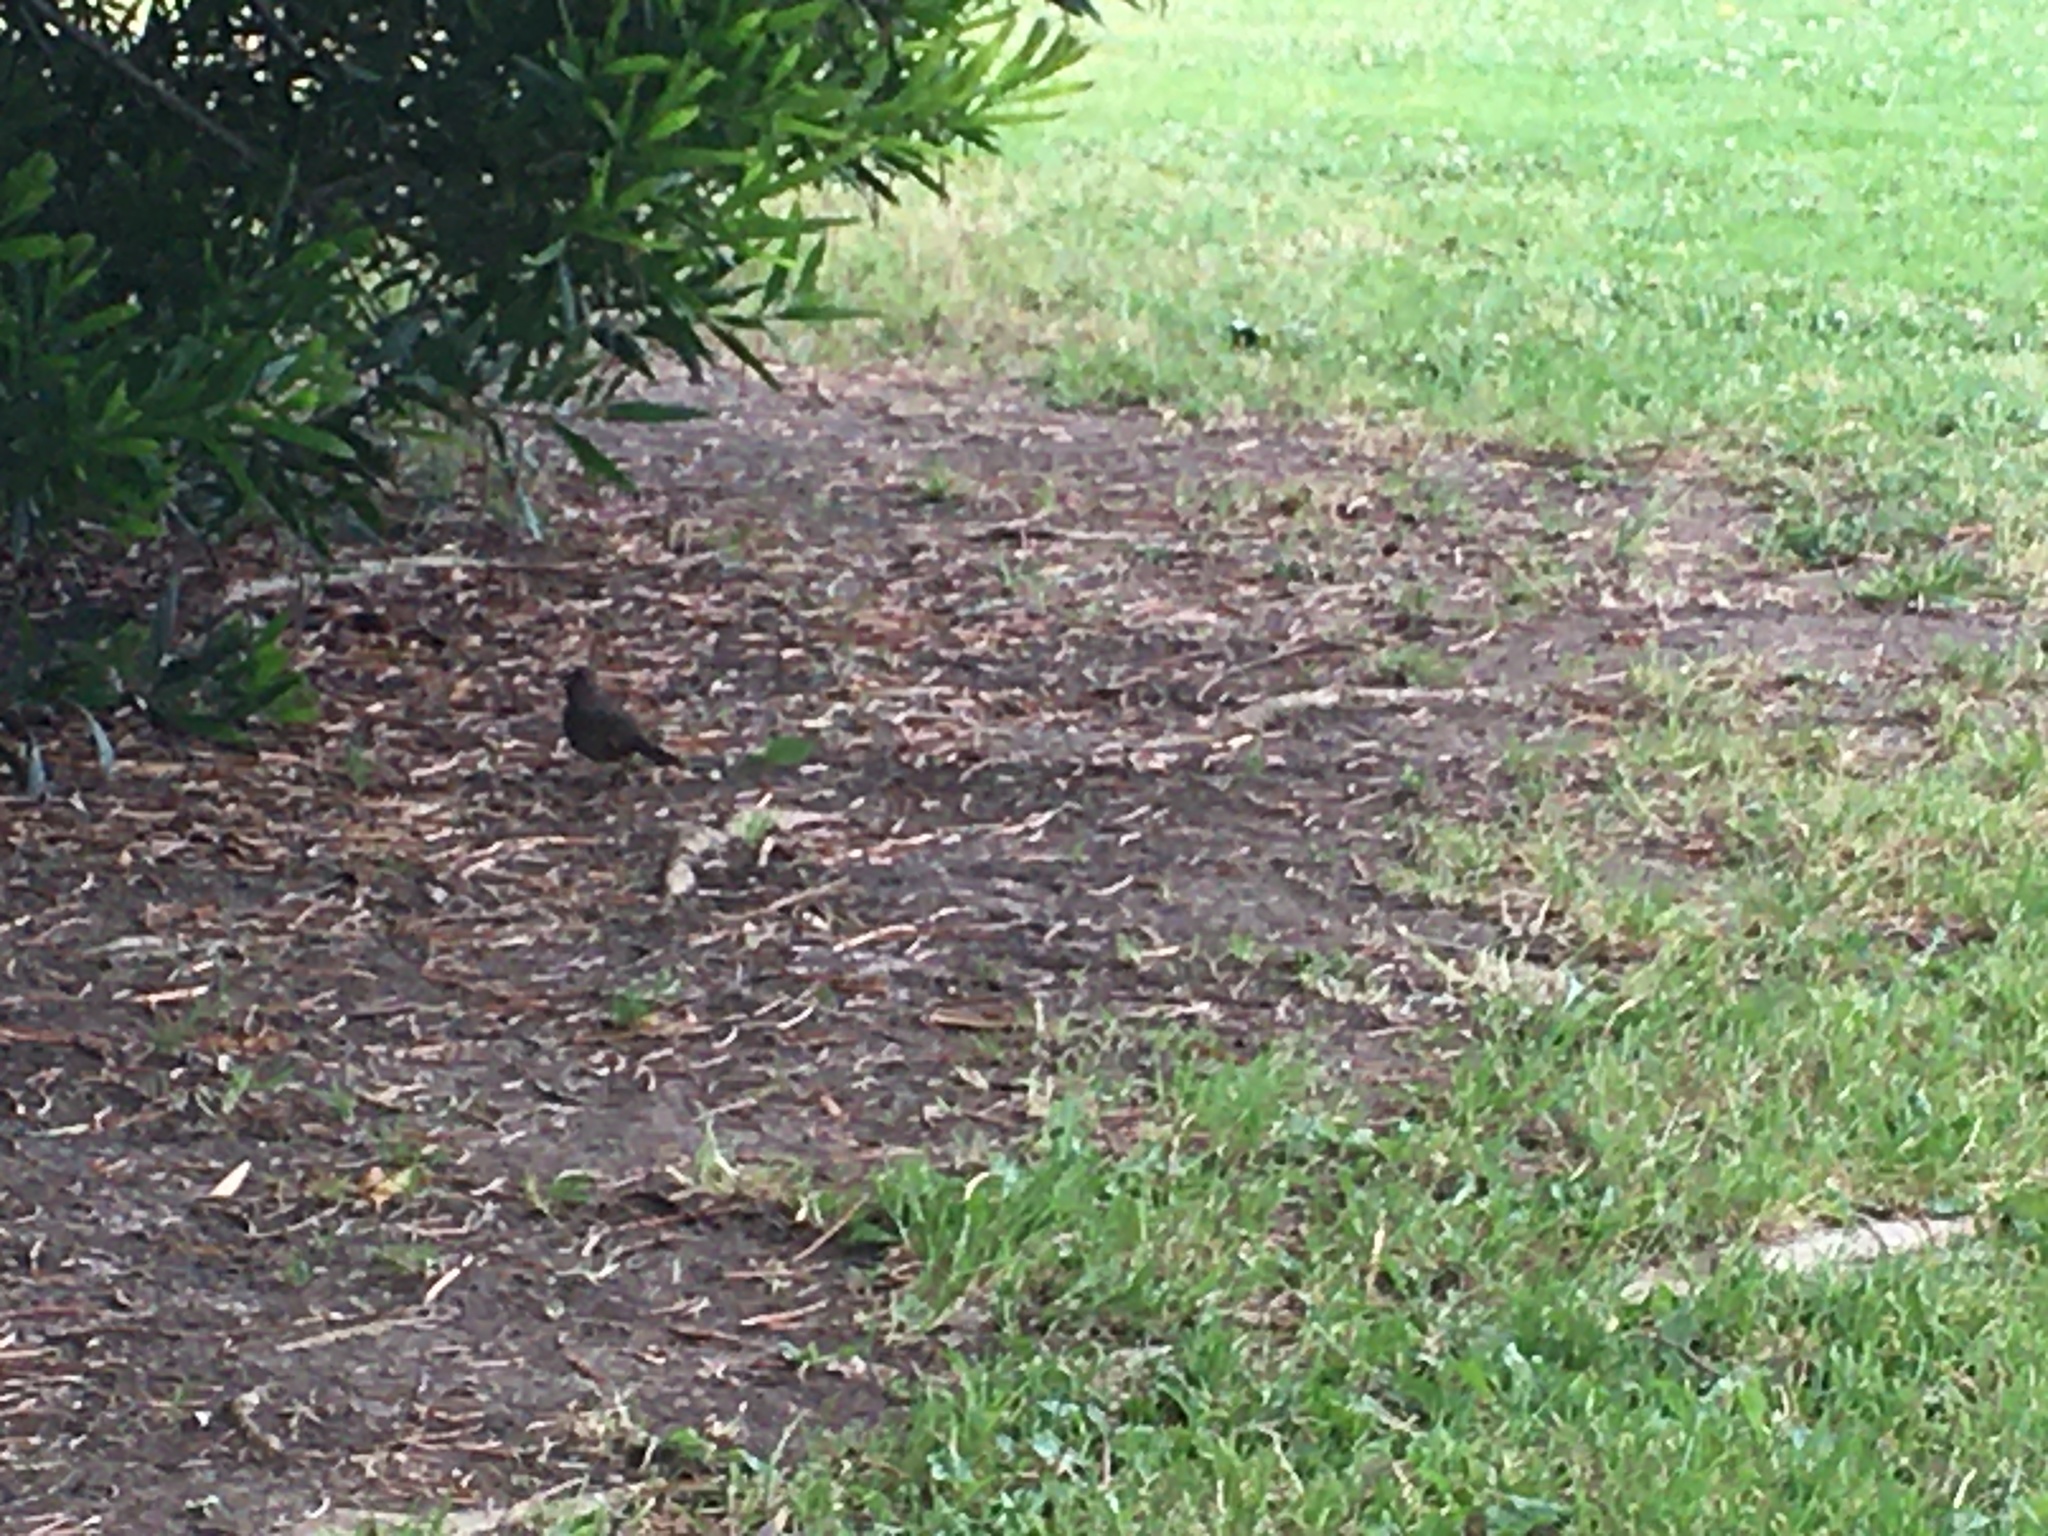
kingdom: Animalia
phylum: Chordata
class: Aves
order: Passeriformes
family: Passerellidae
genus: Melozone
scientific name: Melozone crissalis
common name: California towhee
